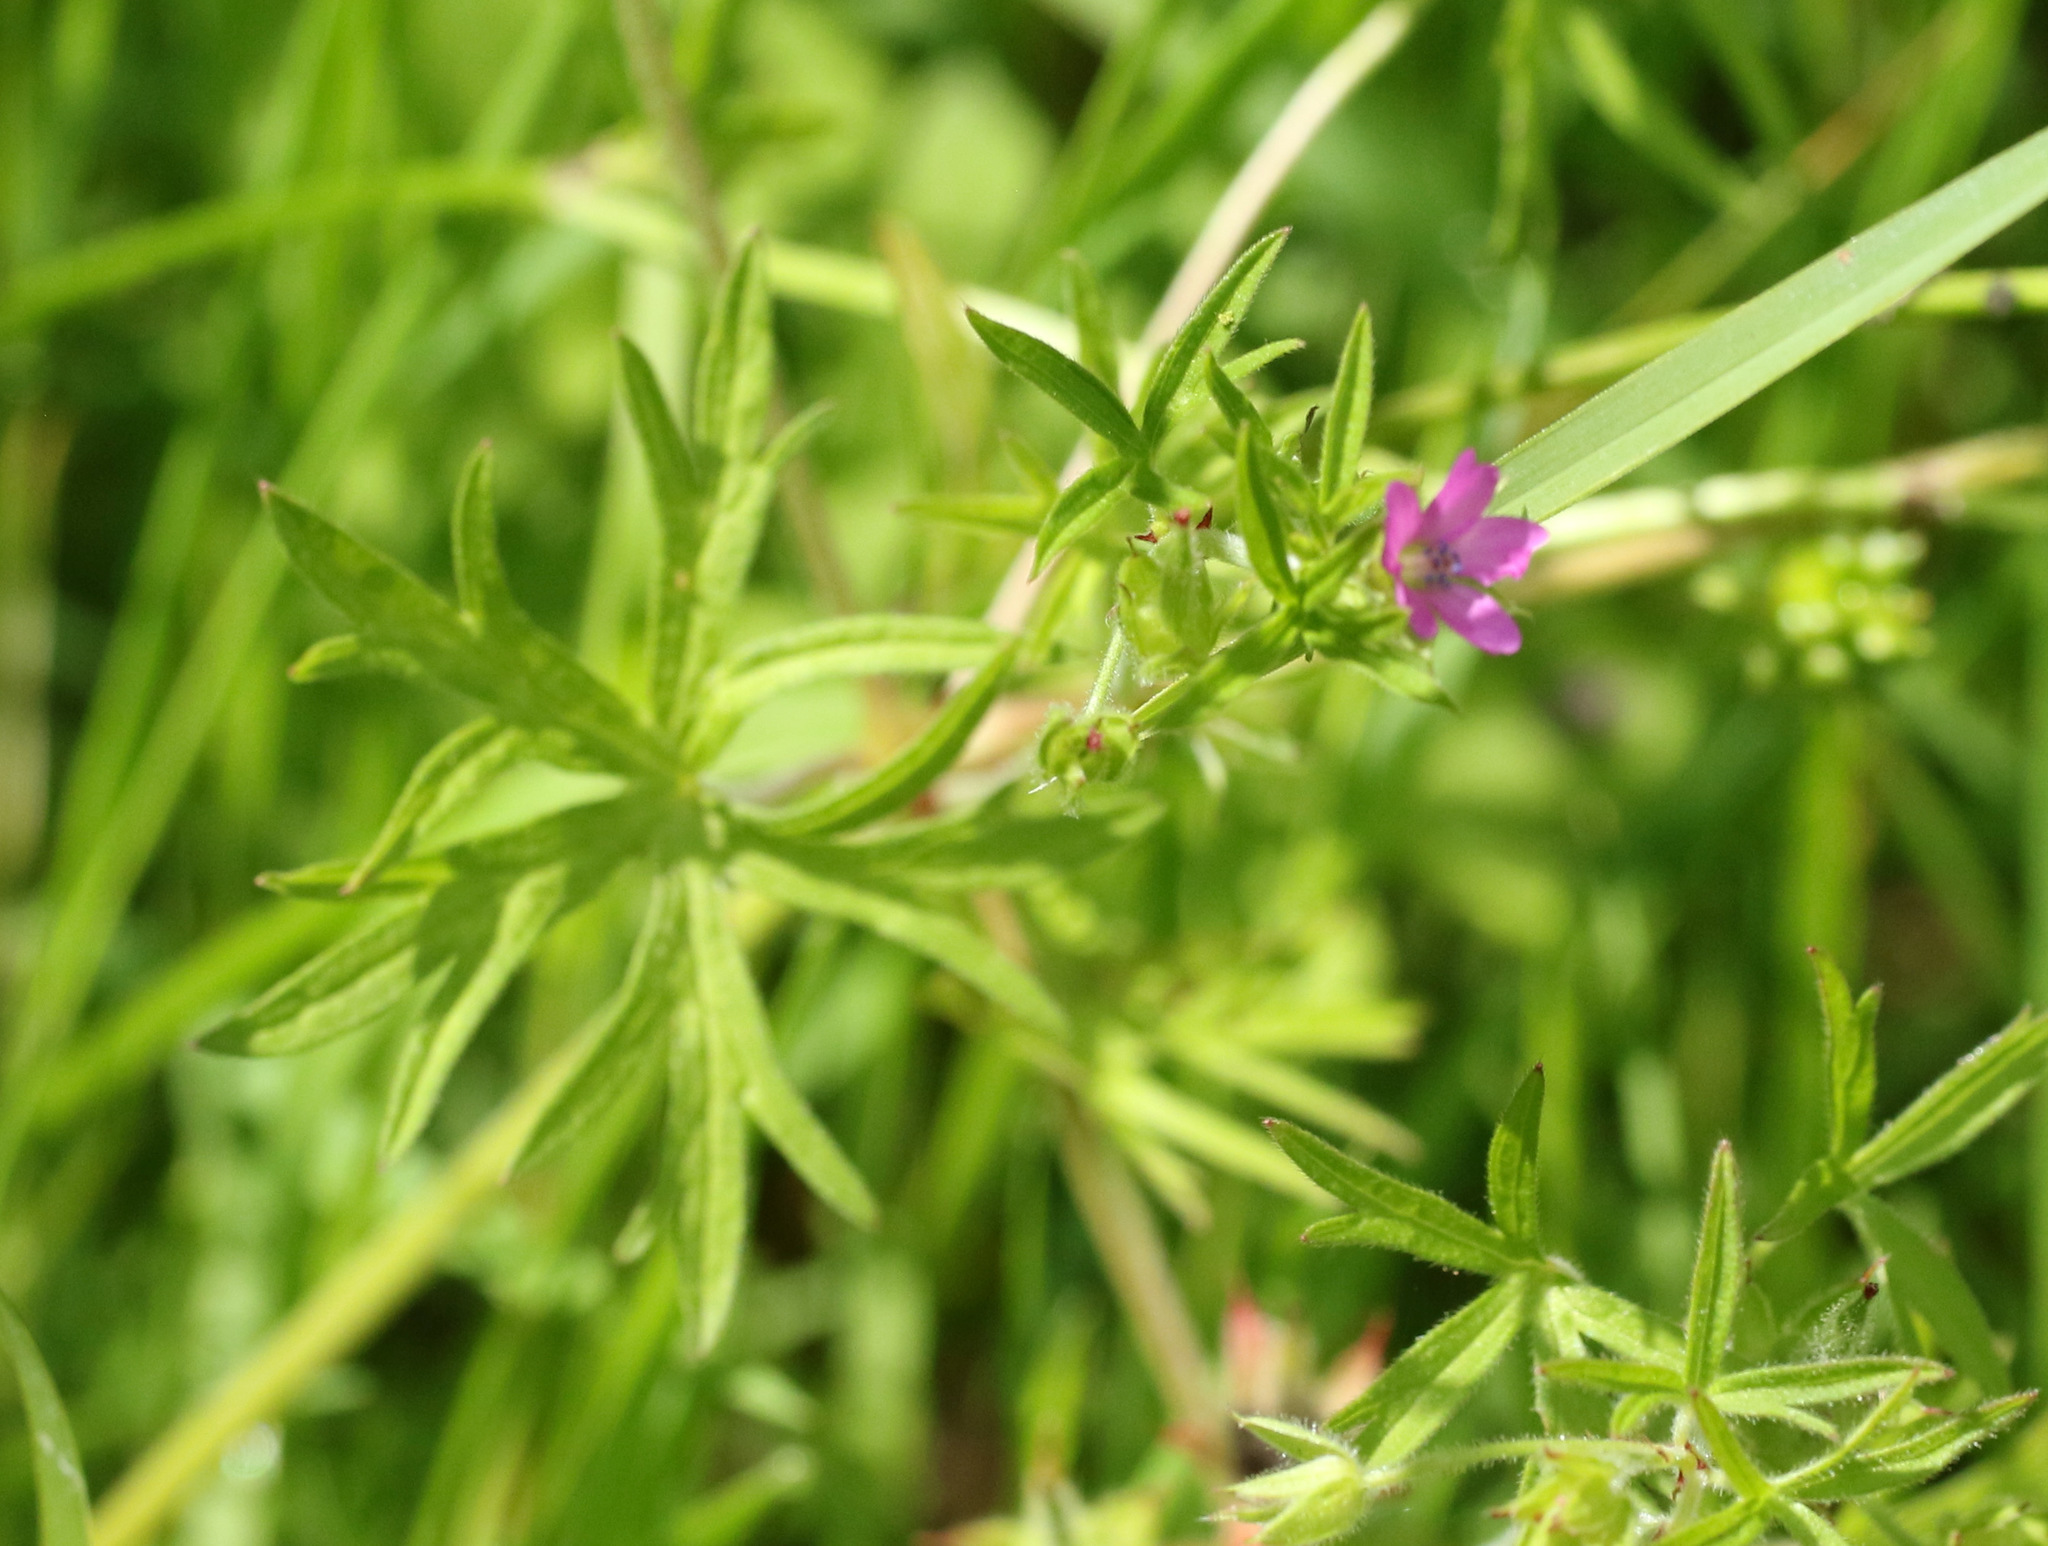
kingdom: Plantae
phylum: Tracheophyta
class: Magnoliopsida
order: Geraniales
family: Geraniaceae
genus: Geranium
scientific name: Geranium dissectum
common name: Cut-leaved crane's-bill
